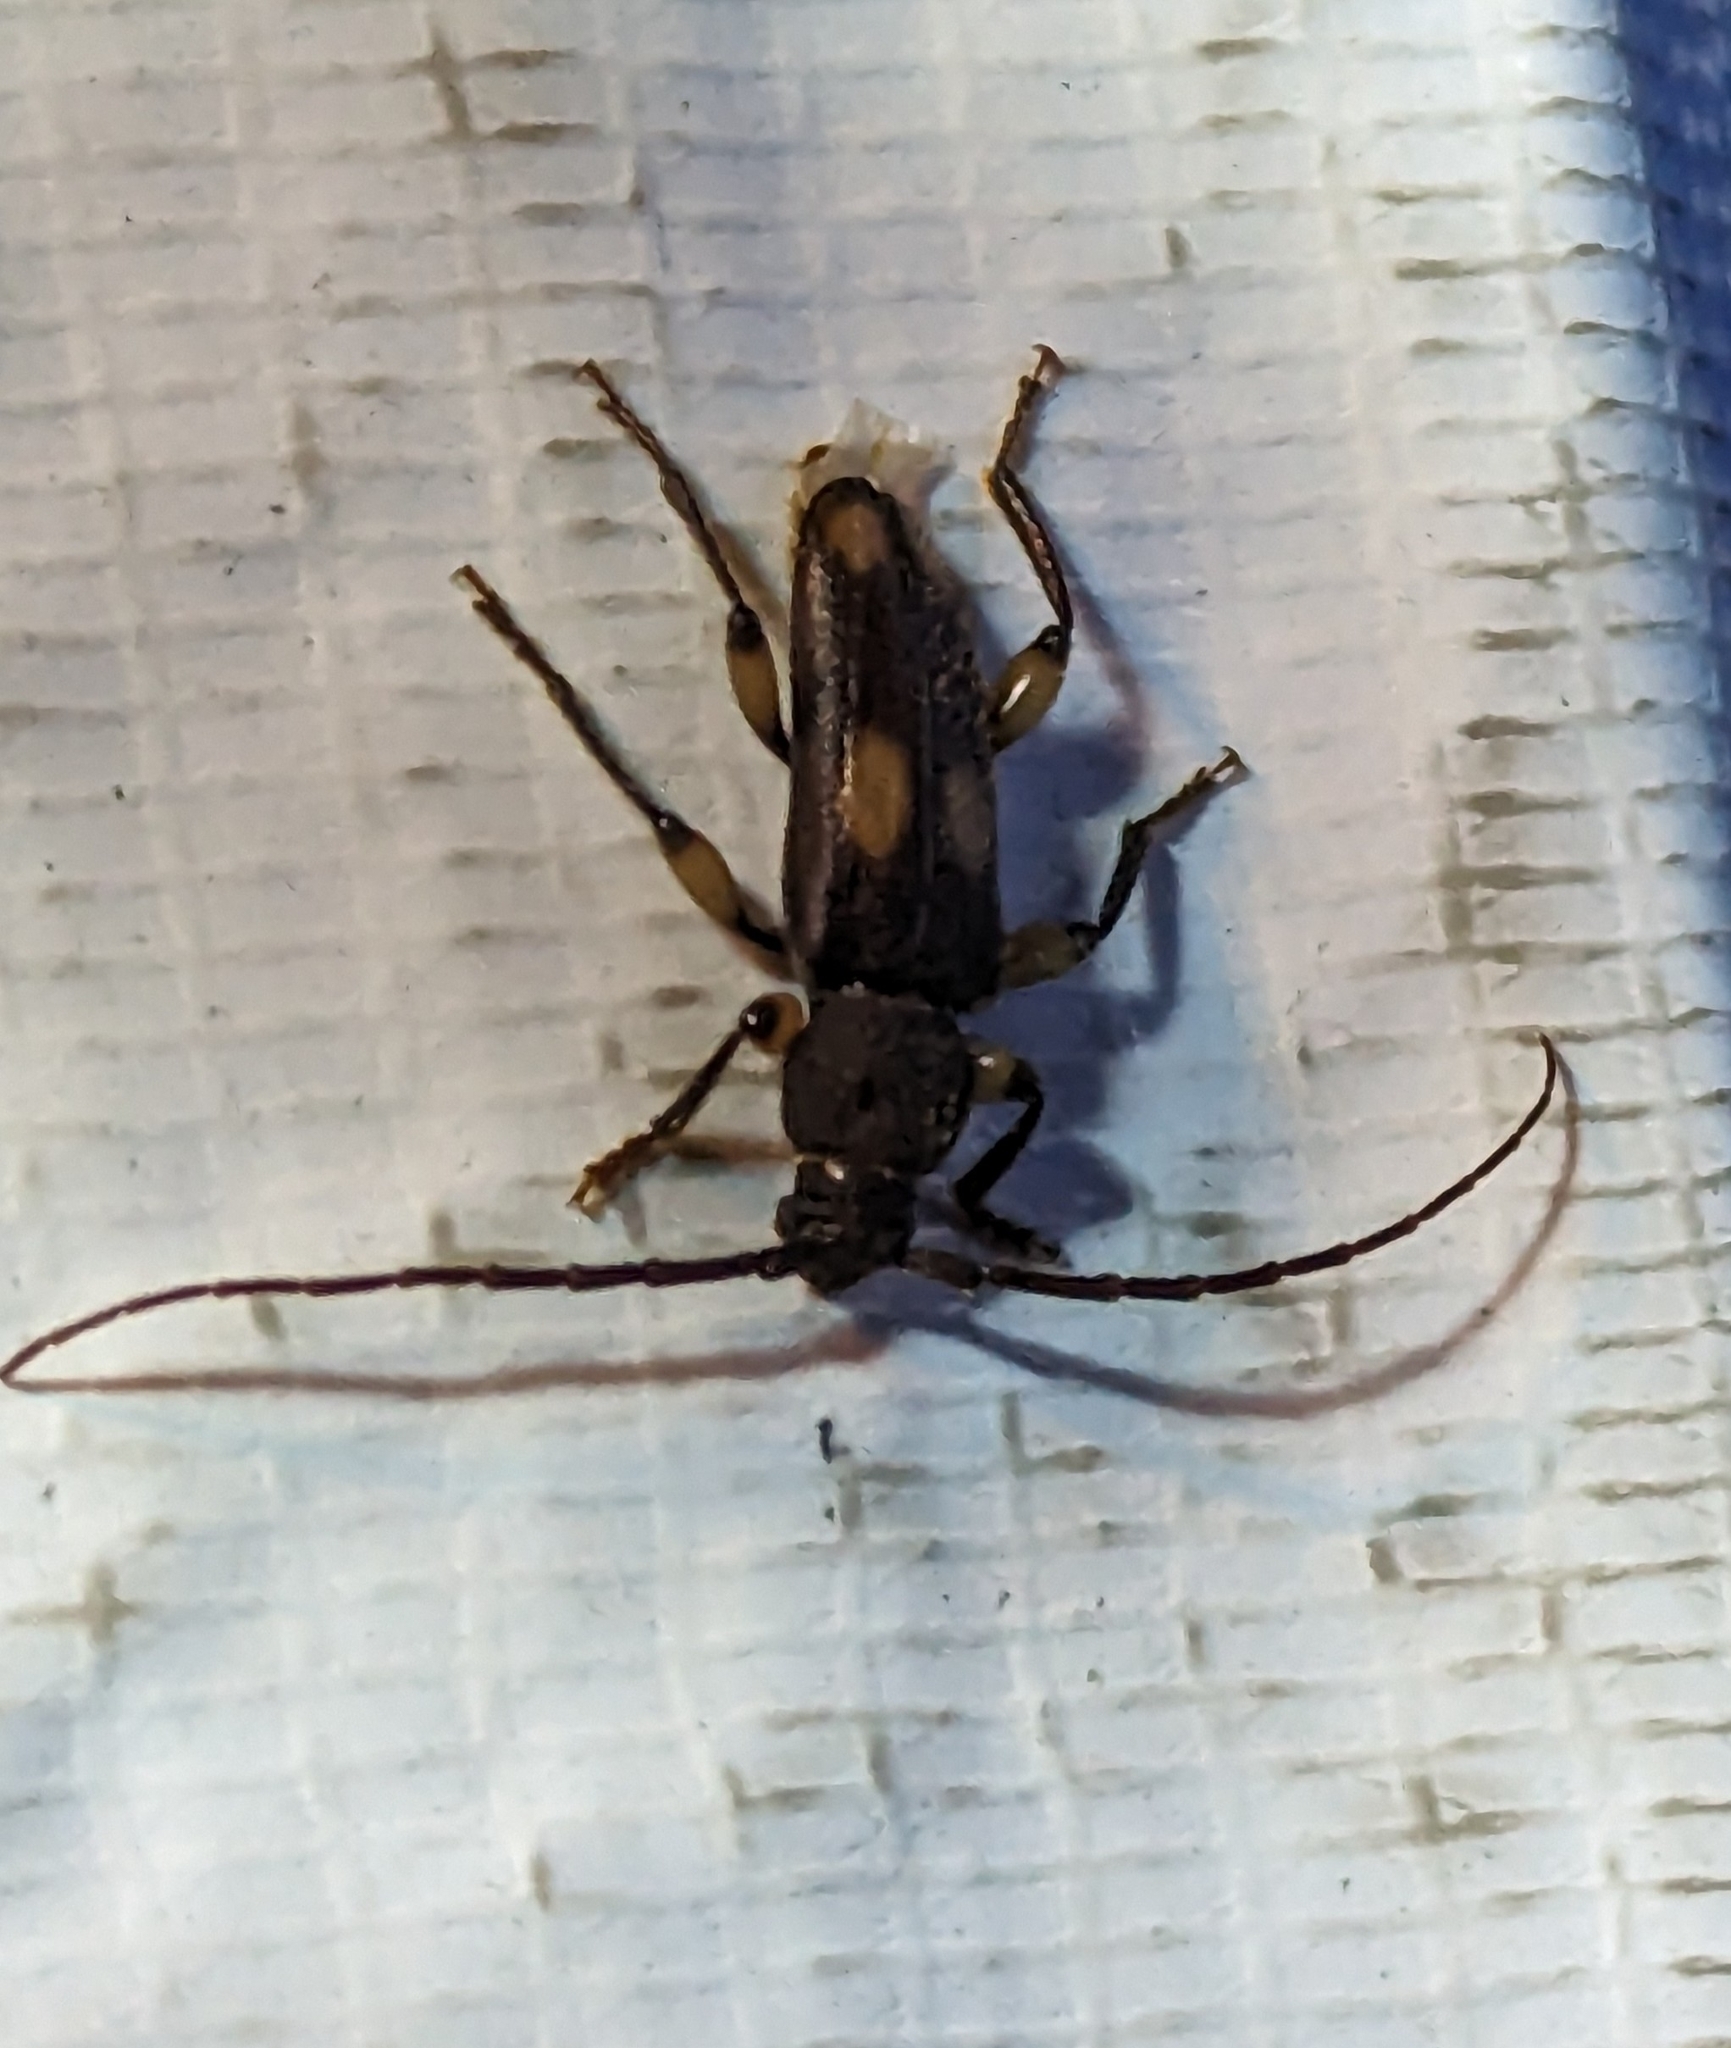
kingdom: Animalia
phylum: Arthropoda
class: Insecta
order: Coleoptera
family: Cerambycidae
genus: Tylonotus
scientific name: Tylonotus bimaculatus
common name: Ash and privet borer
